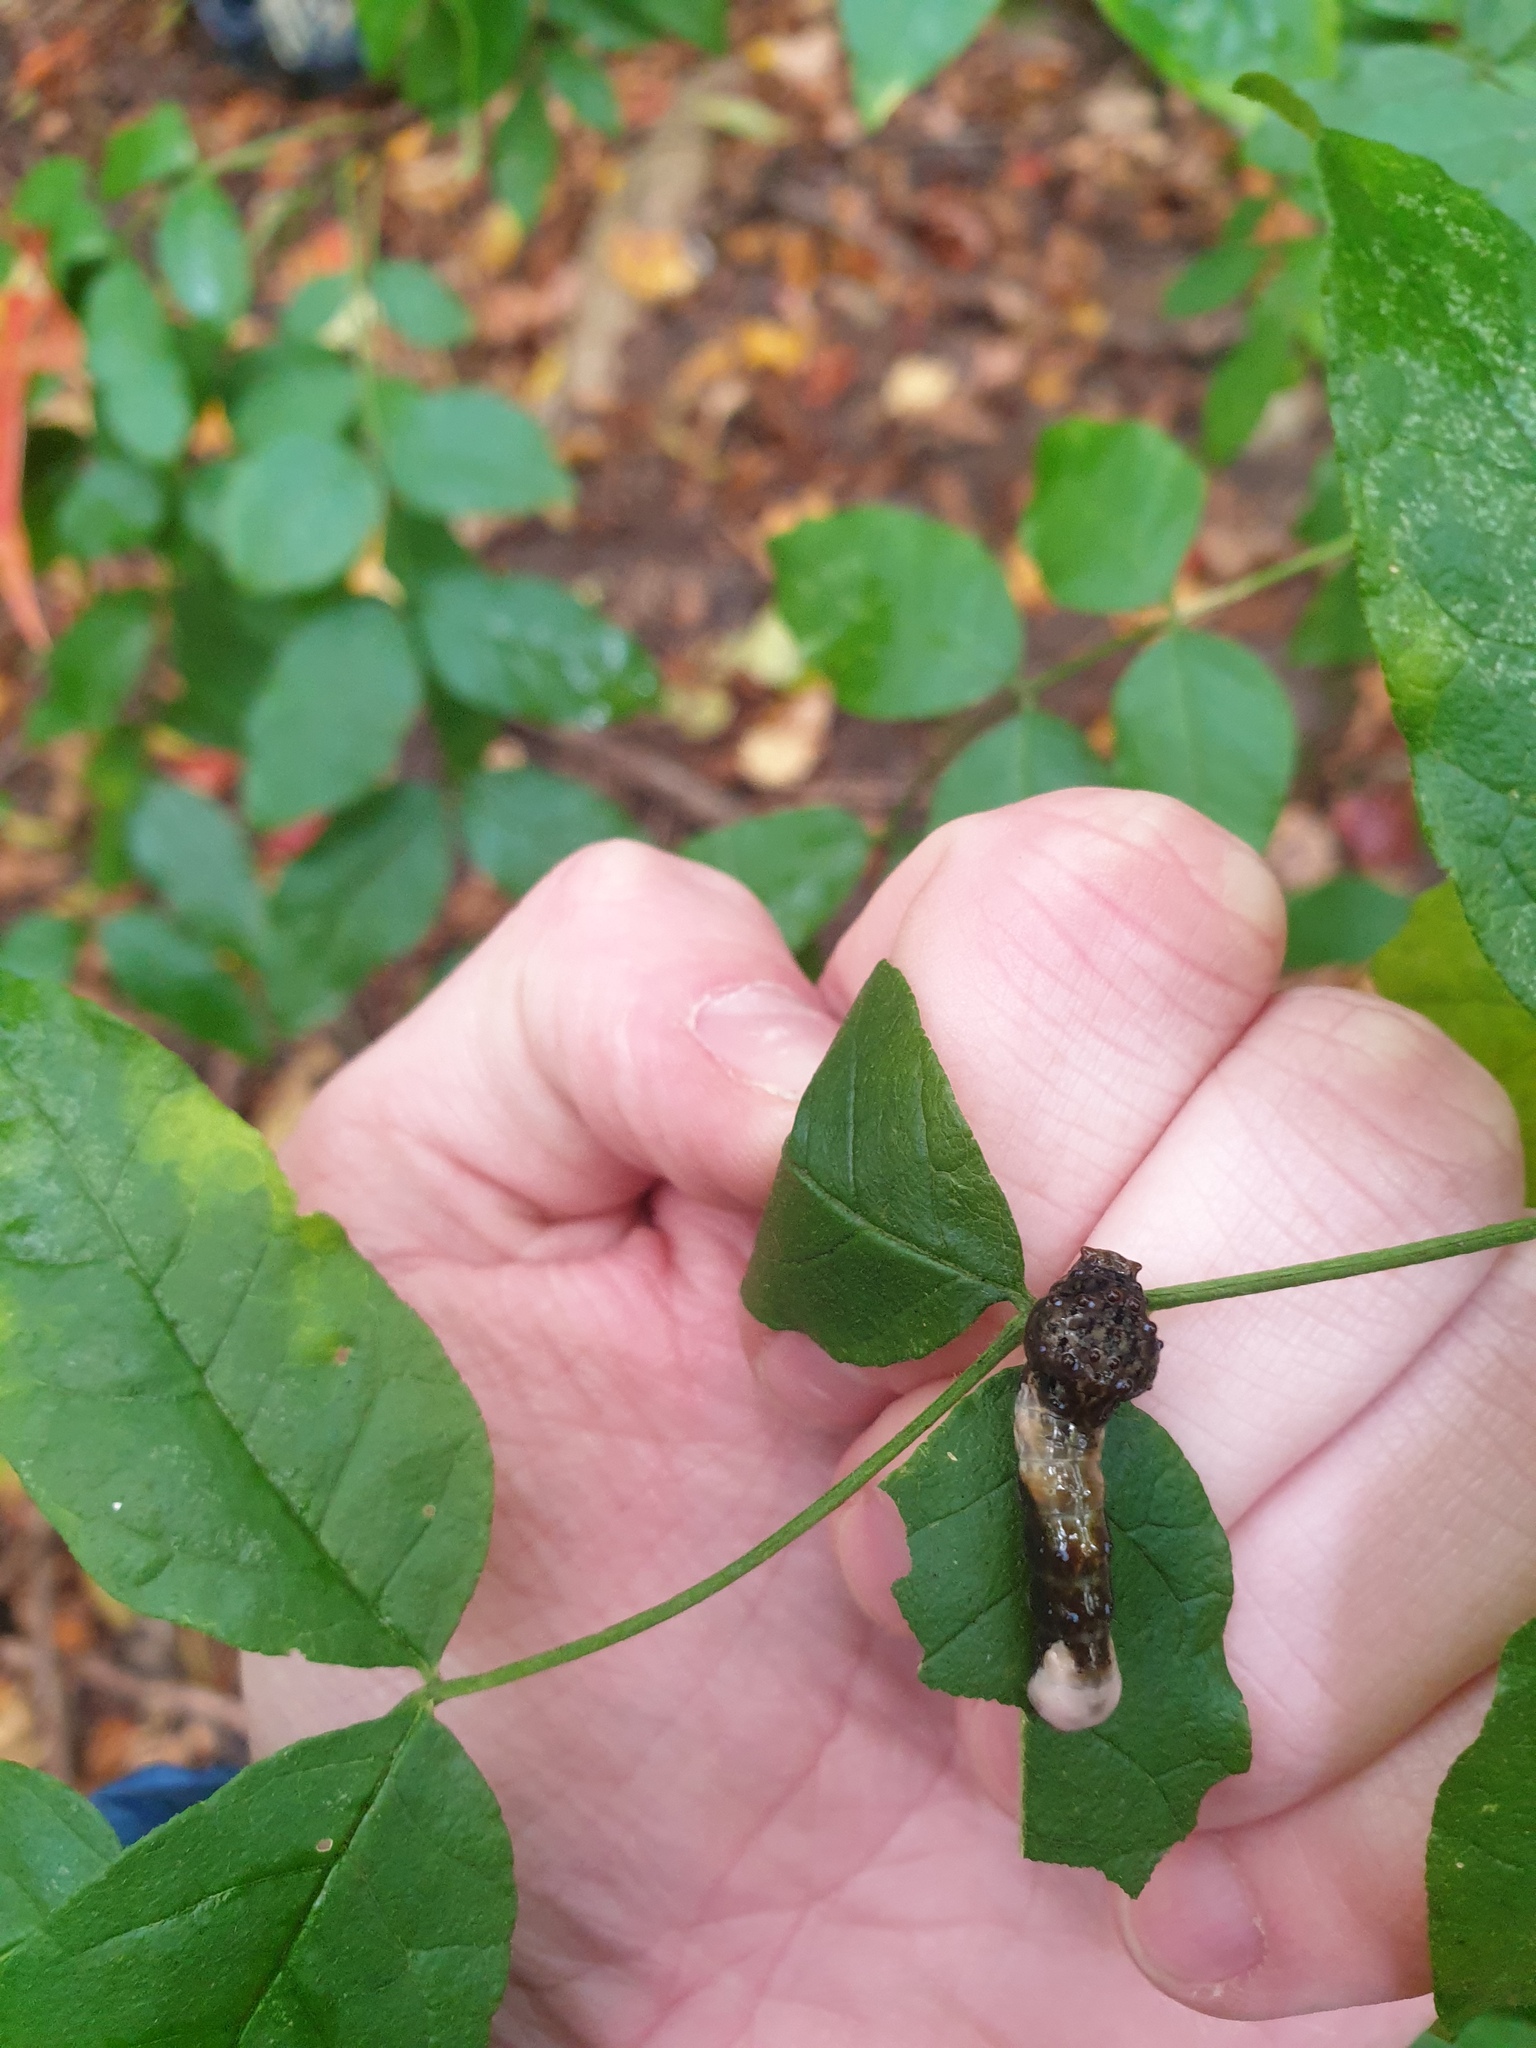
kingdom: Animalia
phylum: Arthropoda
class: Insecta
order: Lepidoptera
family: Papilionidae
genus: Papilio
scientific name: Papilio cresphontes
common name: Giant swallowtail
